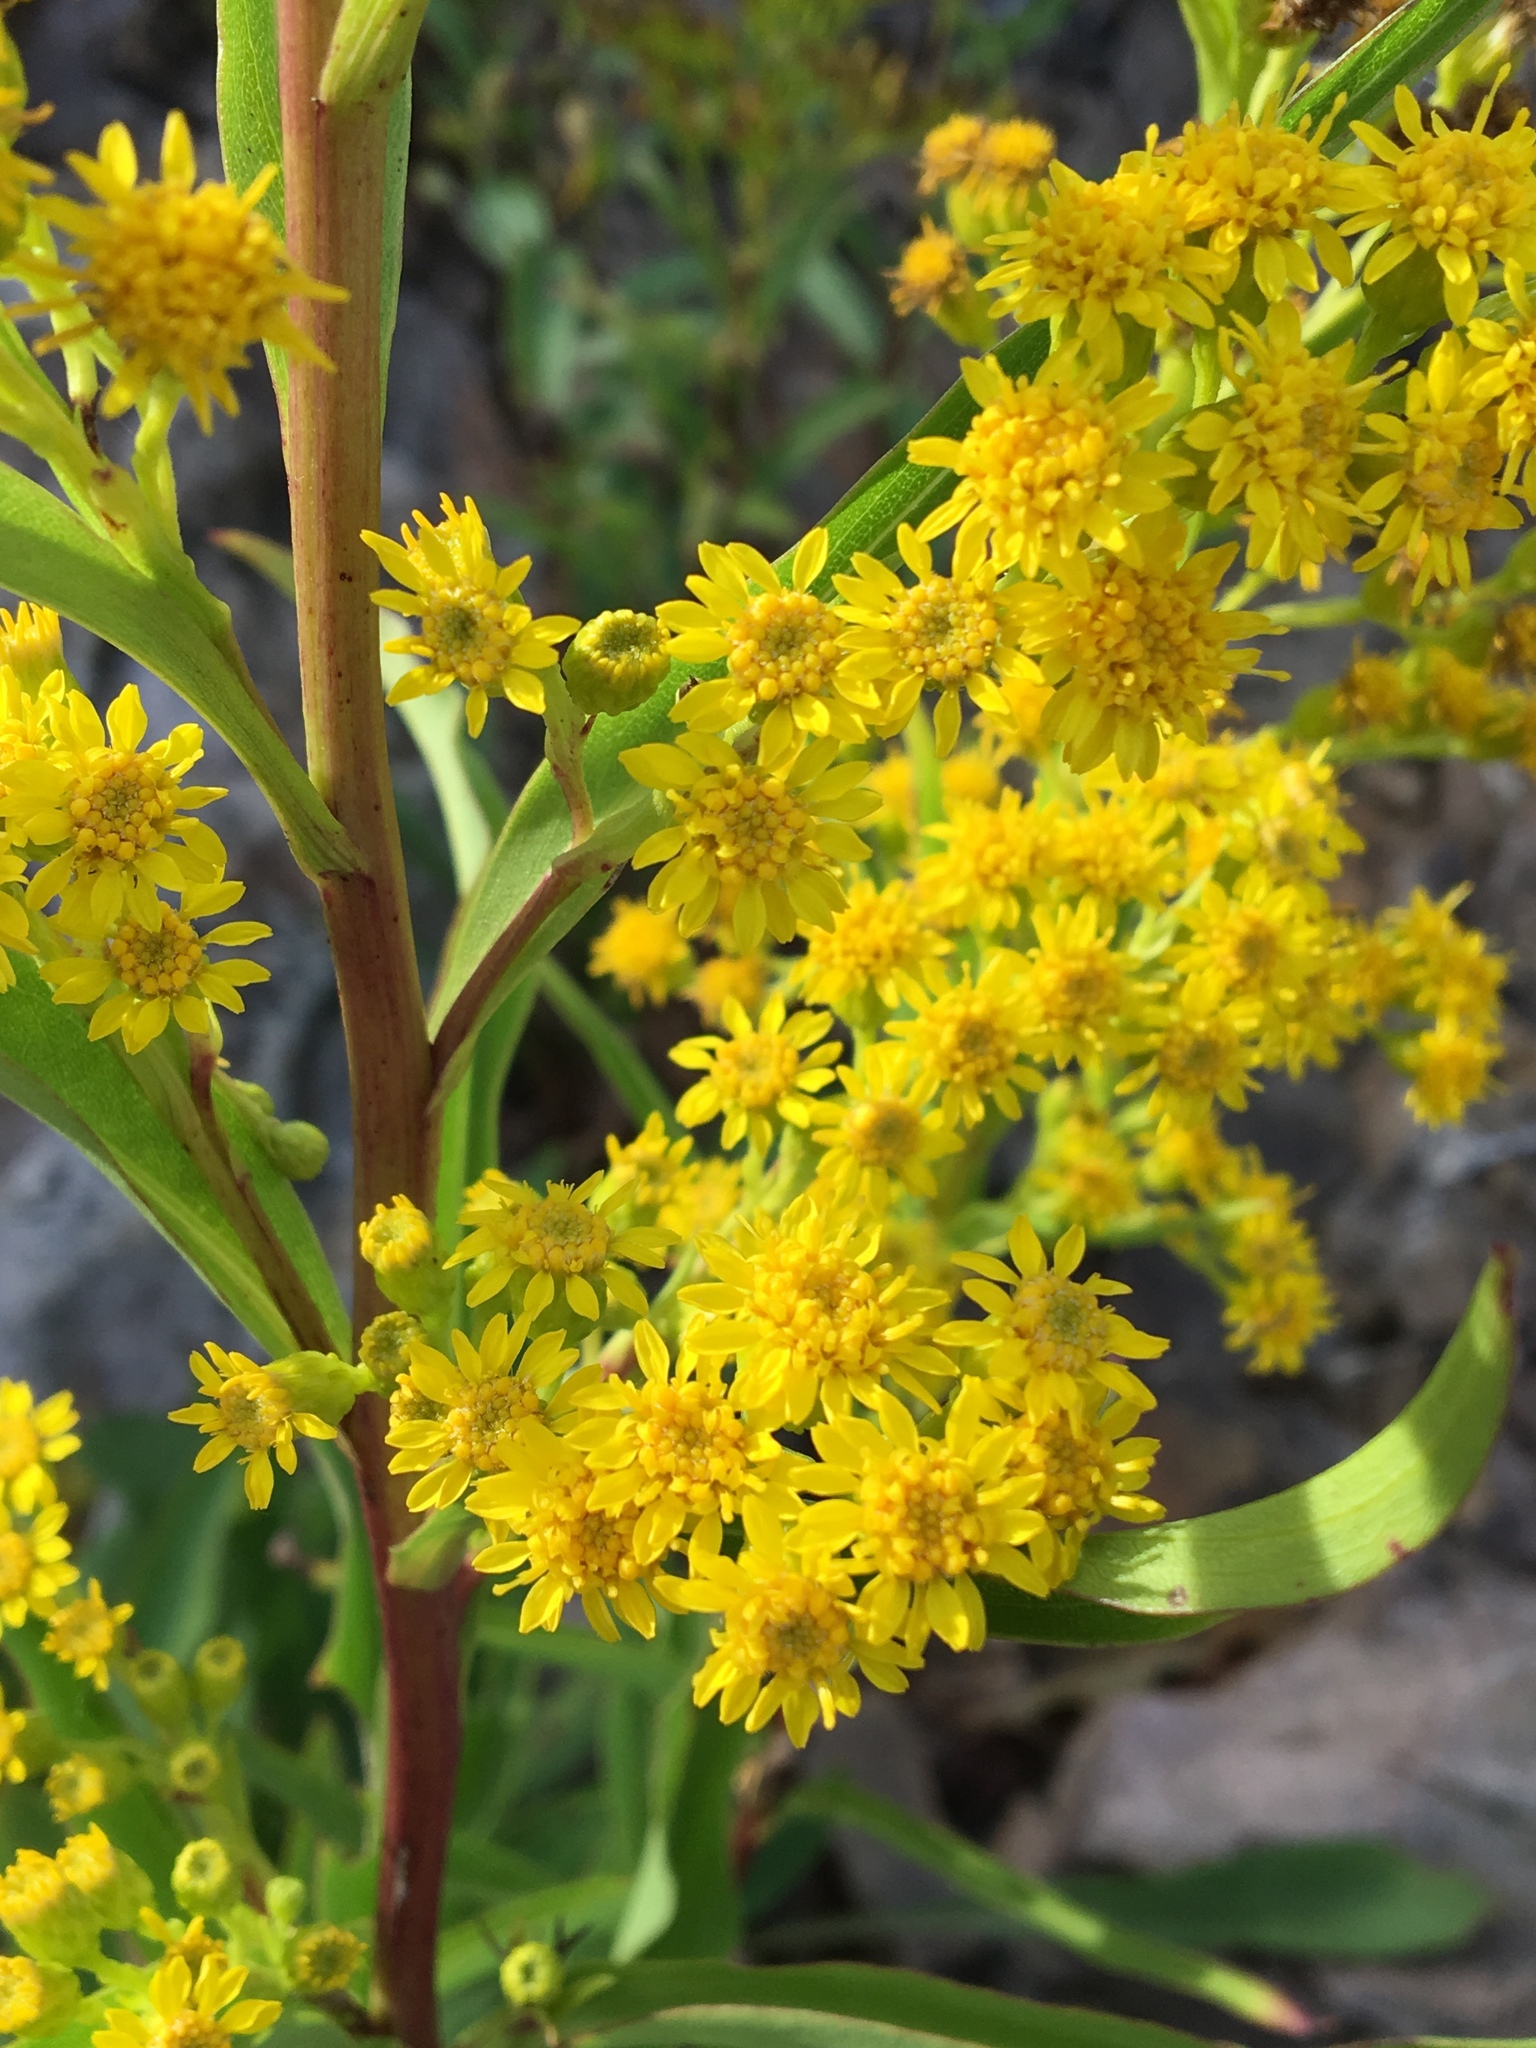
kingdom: Plantae
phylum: Tracheophyta
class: Magnoliopsida
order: Asterales
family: Asteraceae
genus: Solidago
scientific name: Solidago sempervirens
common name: Salt-marsh goldenrod
